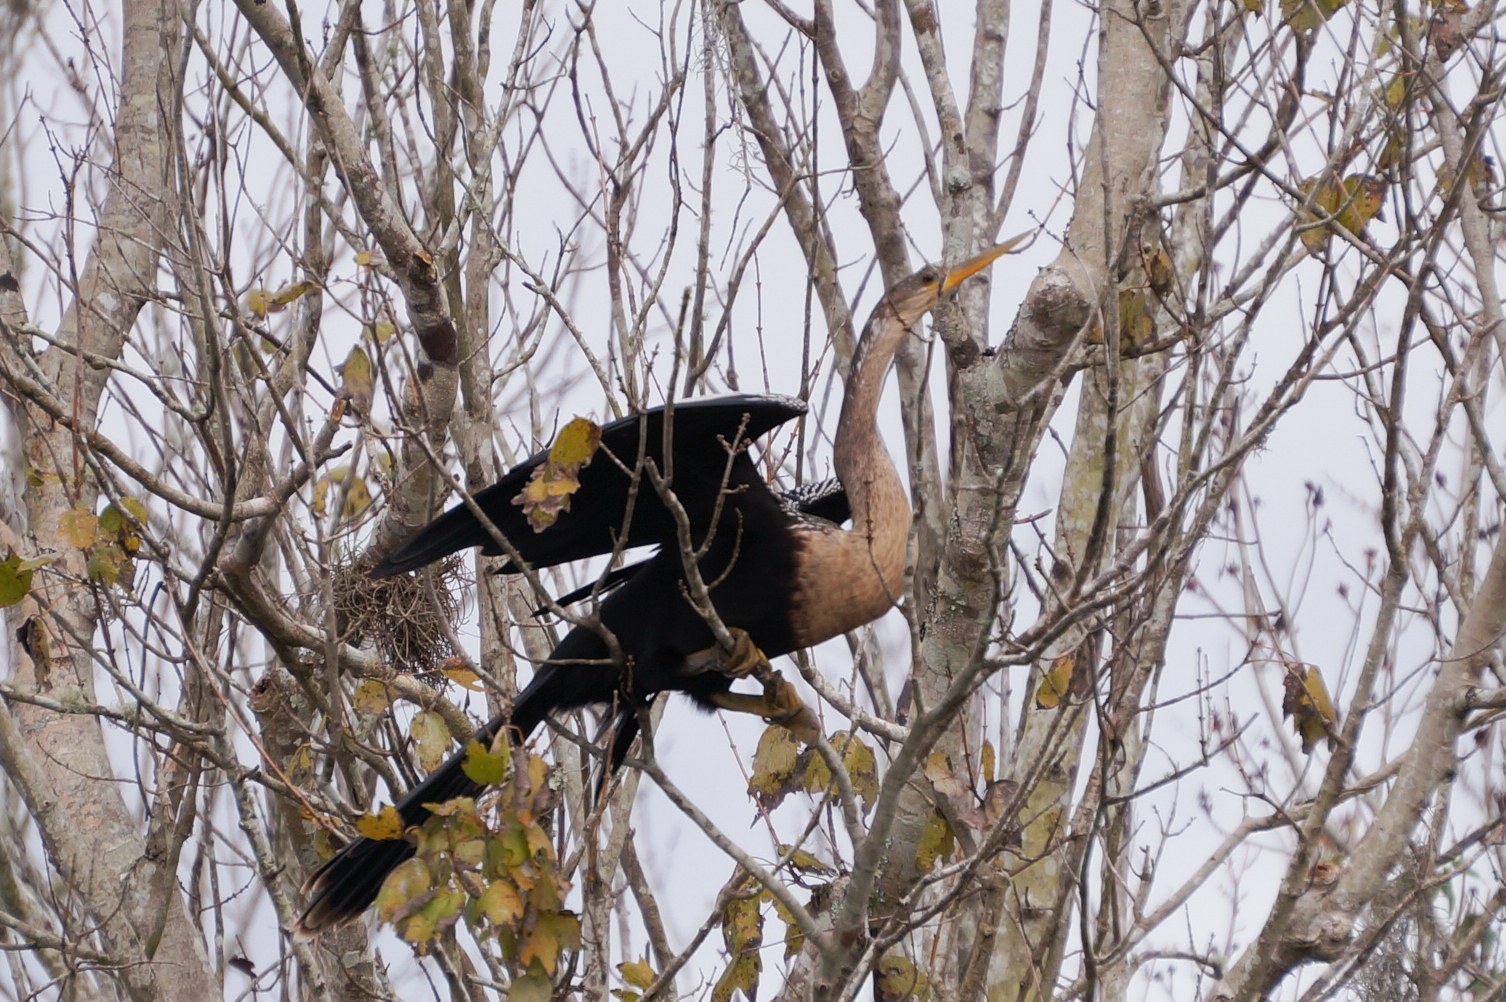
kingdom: Animalia
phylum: Chordata
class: Aves
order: Suliformes
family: Anhingidae
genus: Anhinga
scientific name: Anhinga anhinga
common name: Anhinga
